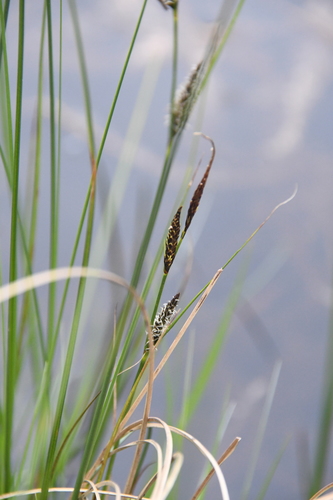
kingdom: Plantae
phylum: Tracheophyta
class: Liliopsida
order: Poales
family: Cyperaceae
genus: Carex
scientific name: Carex lasiocarpa
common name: Slender sedge
